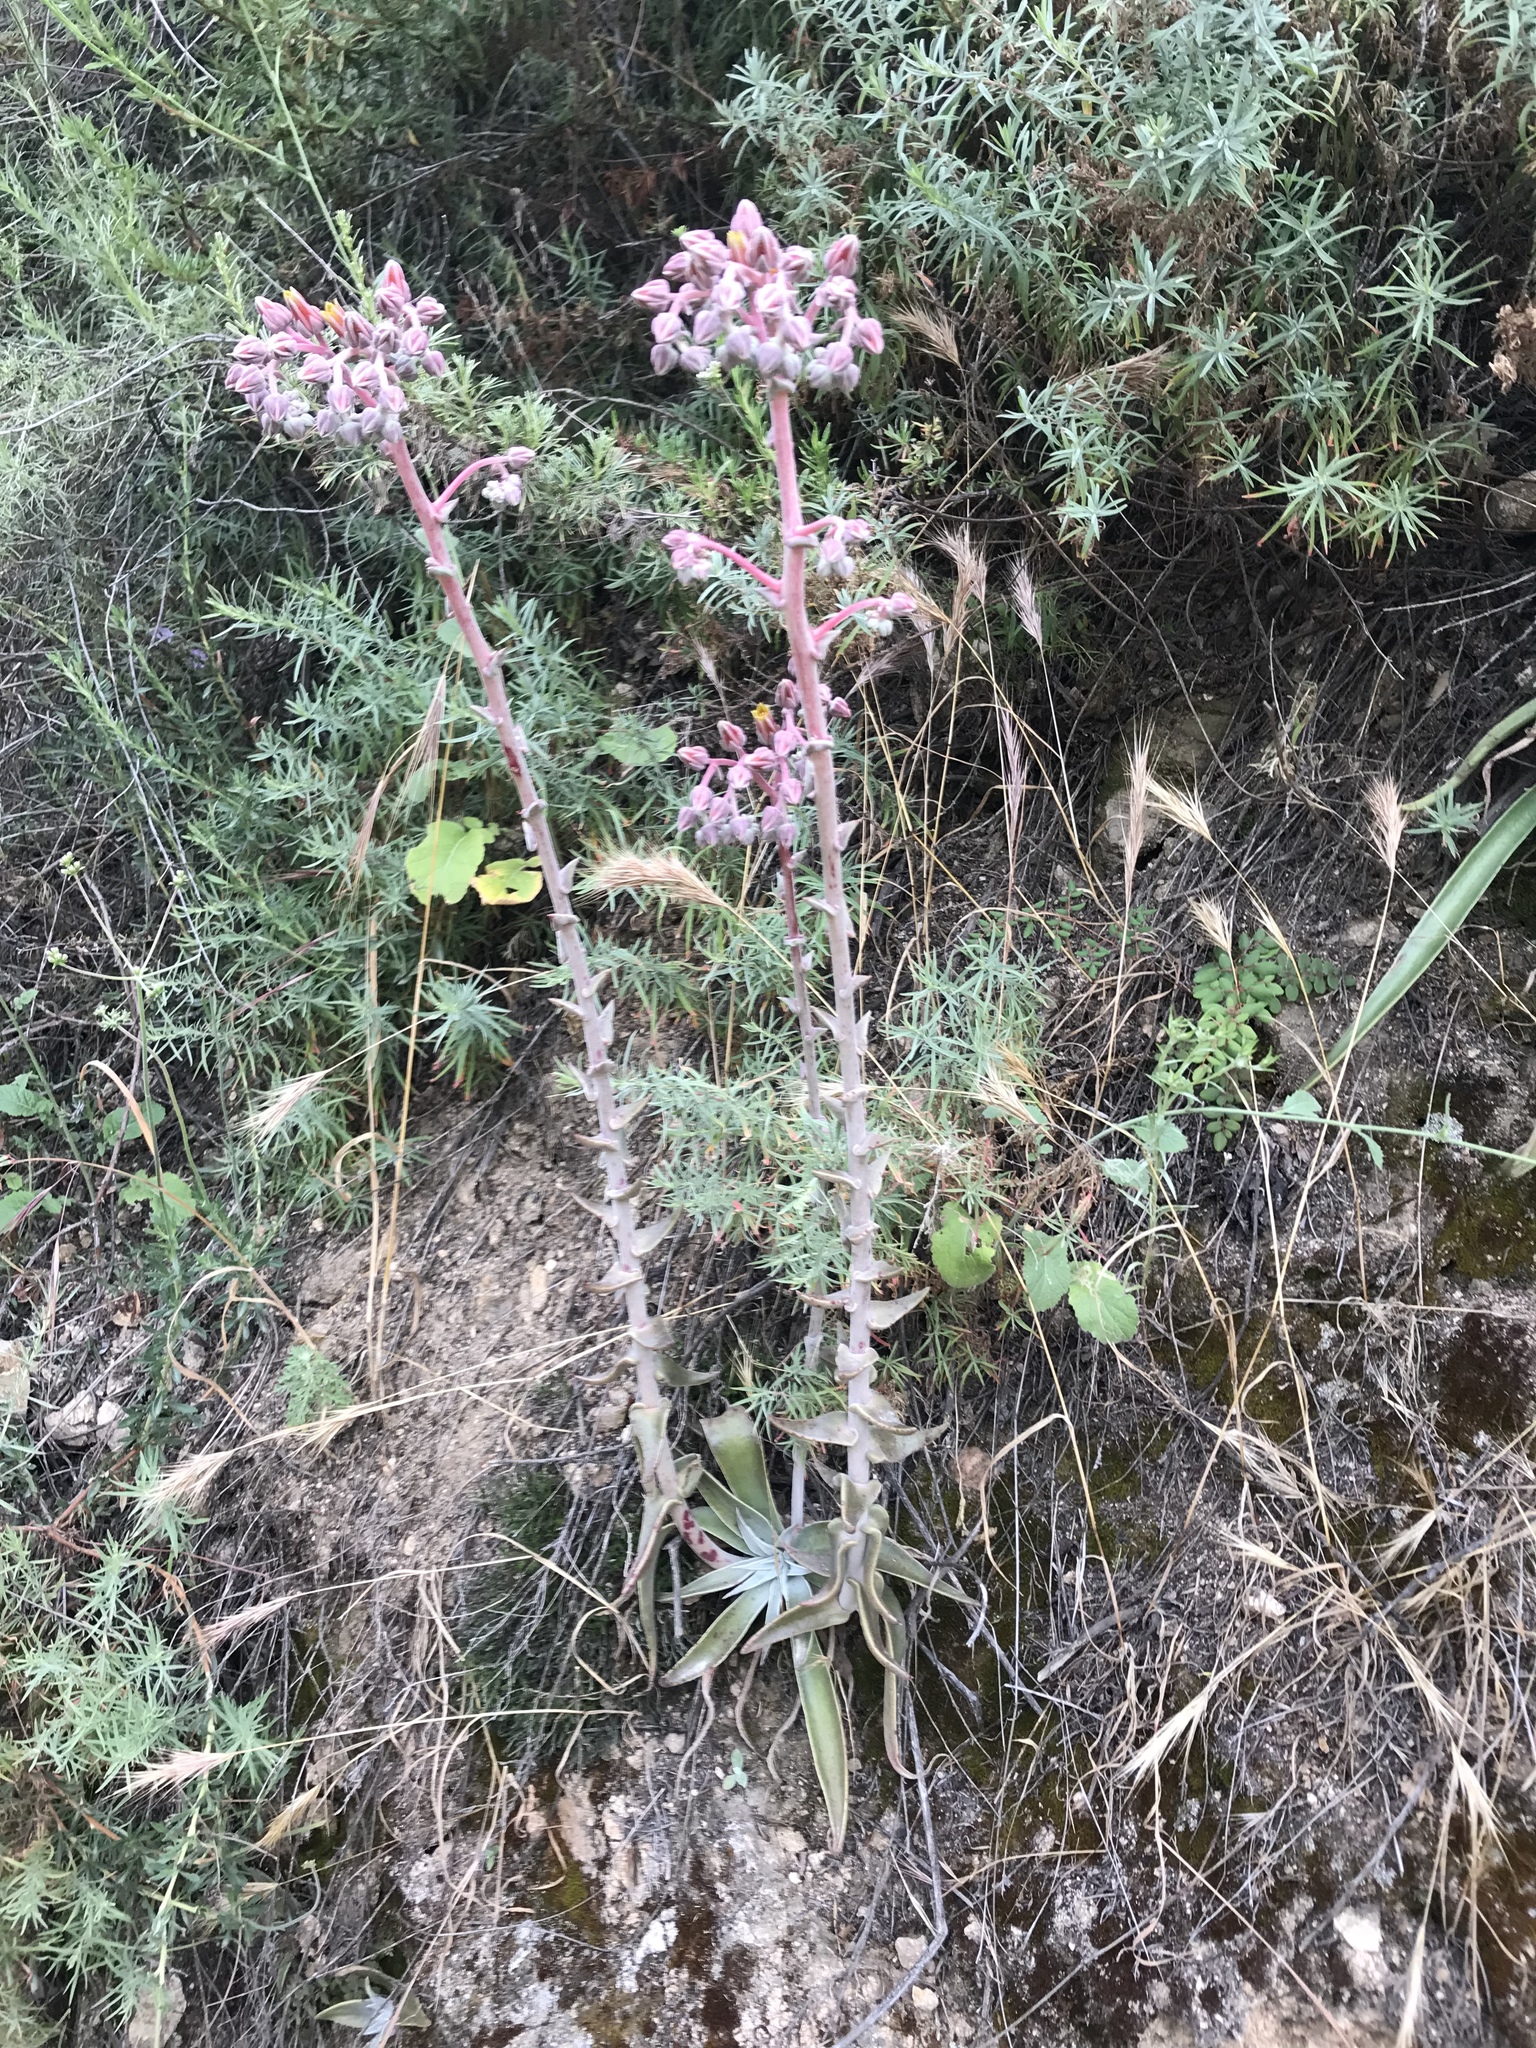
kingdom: Plantae
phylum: Tracheophyta
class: Magnoliopsida
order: Saxifragales
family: Crassulaceae
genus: Dudleya
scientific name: Dudleya lanceolata
